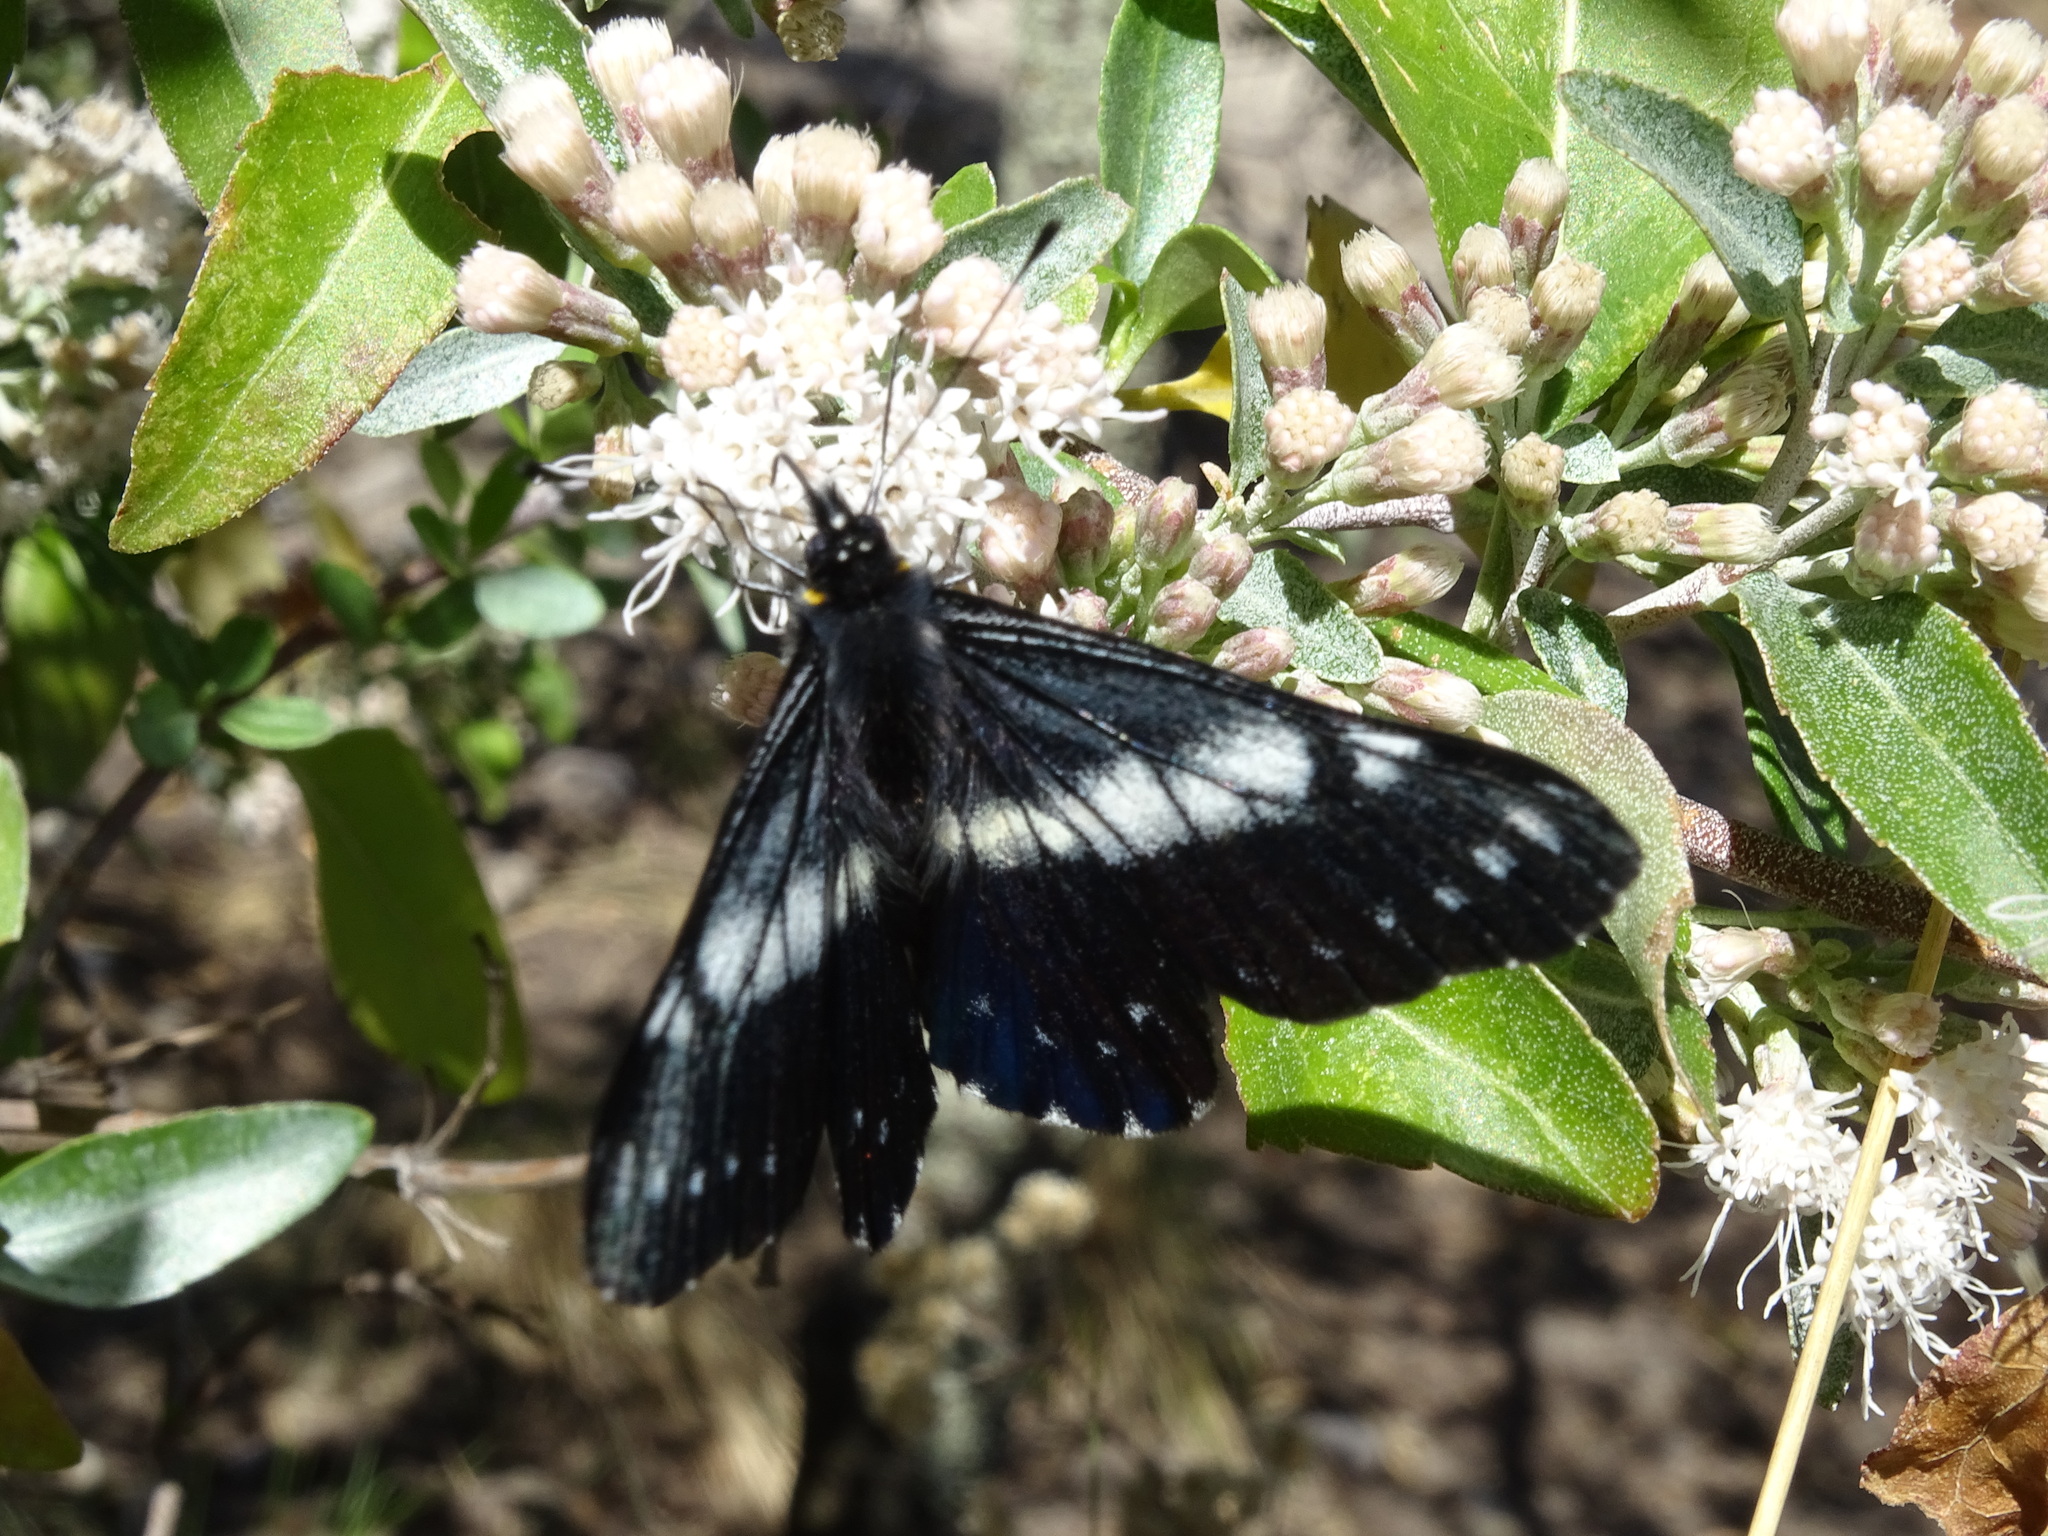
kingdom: Animalia
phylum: Arthropoda
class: Insecta
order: Lepidoptera
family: Pieridae
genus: Archonias
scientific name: Archonias teutila
